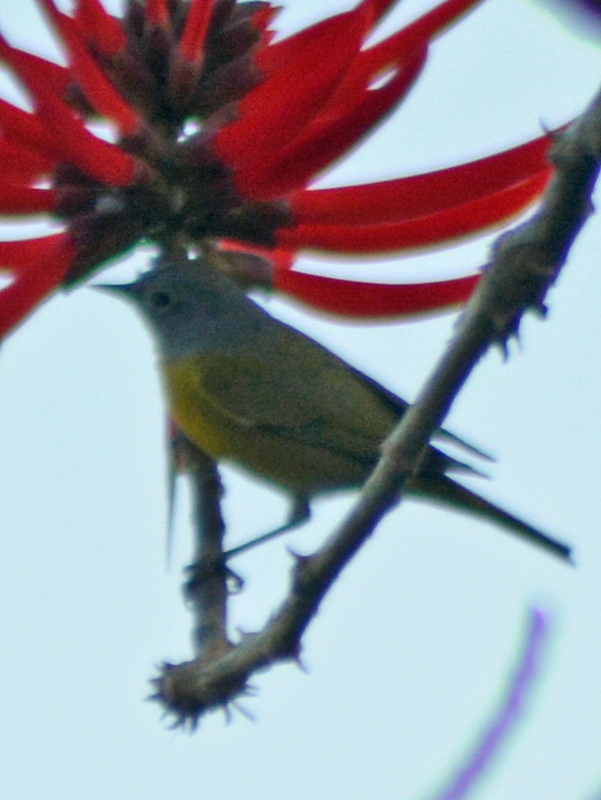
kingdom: Animalia
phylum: Chordata
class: Aves
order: Passeriformes
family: Parulidae
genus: Leiothlypis
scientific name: Leiothlypis ruficapilla
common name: Nashville warbler
